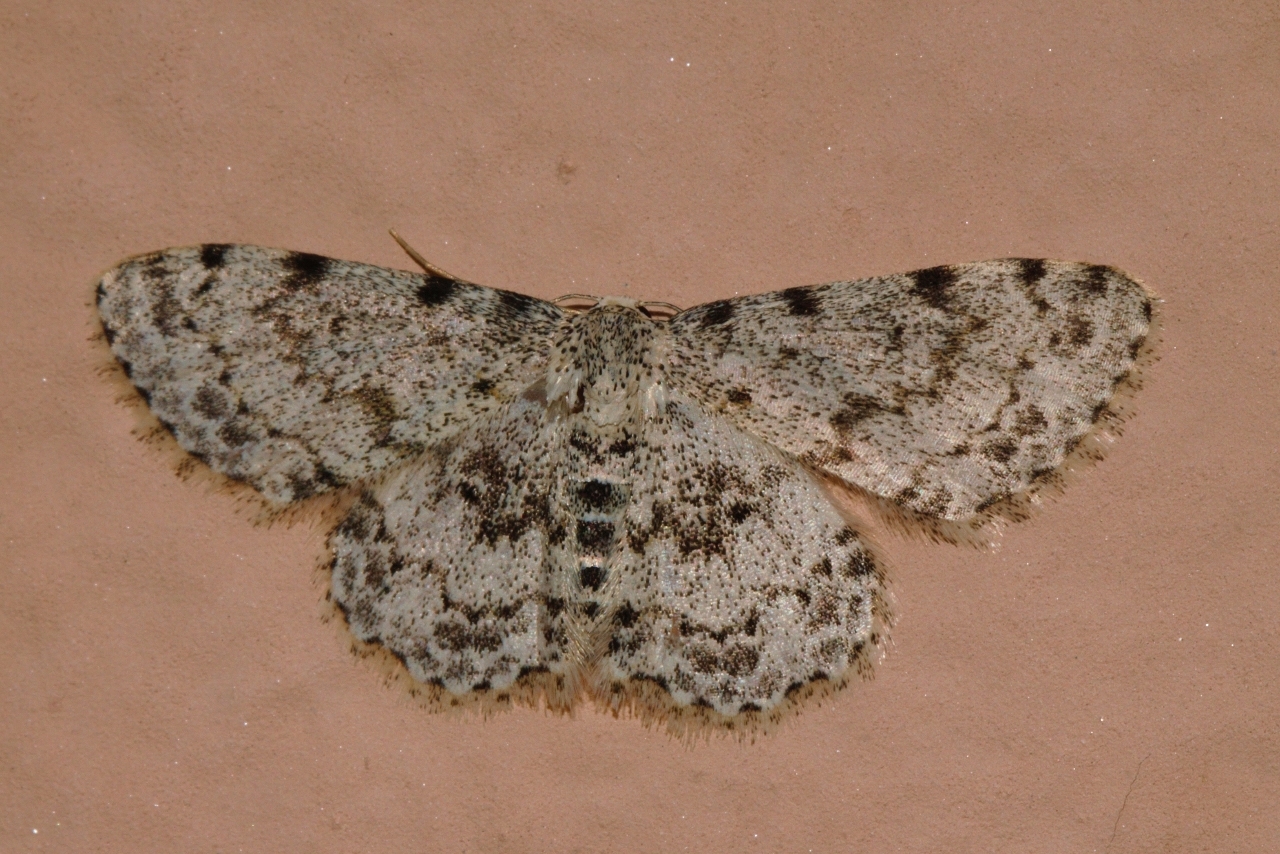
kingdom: Animalia
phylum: Arthropoda
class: Insecta
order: Lepidoptera
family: Geometridae
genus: Scopula
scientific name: Scopula nigrinotata
